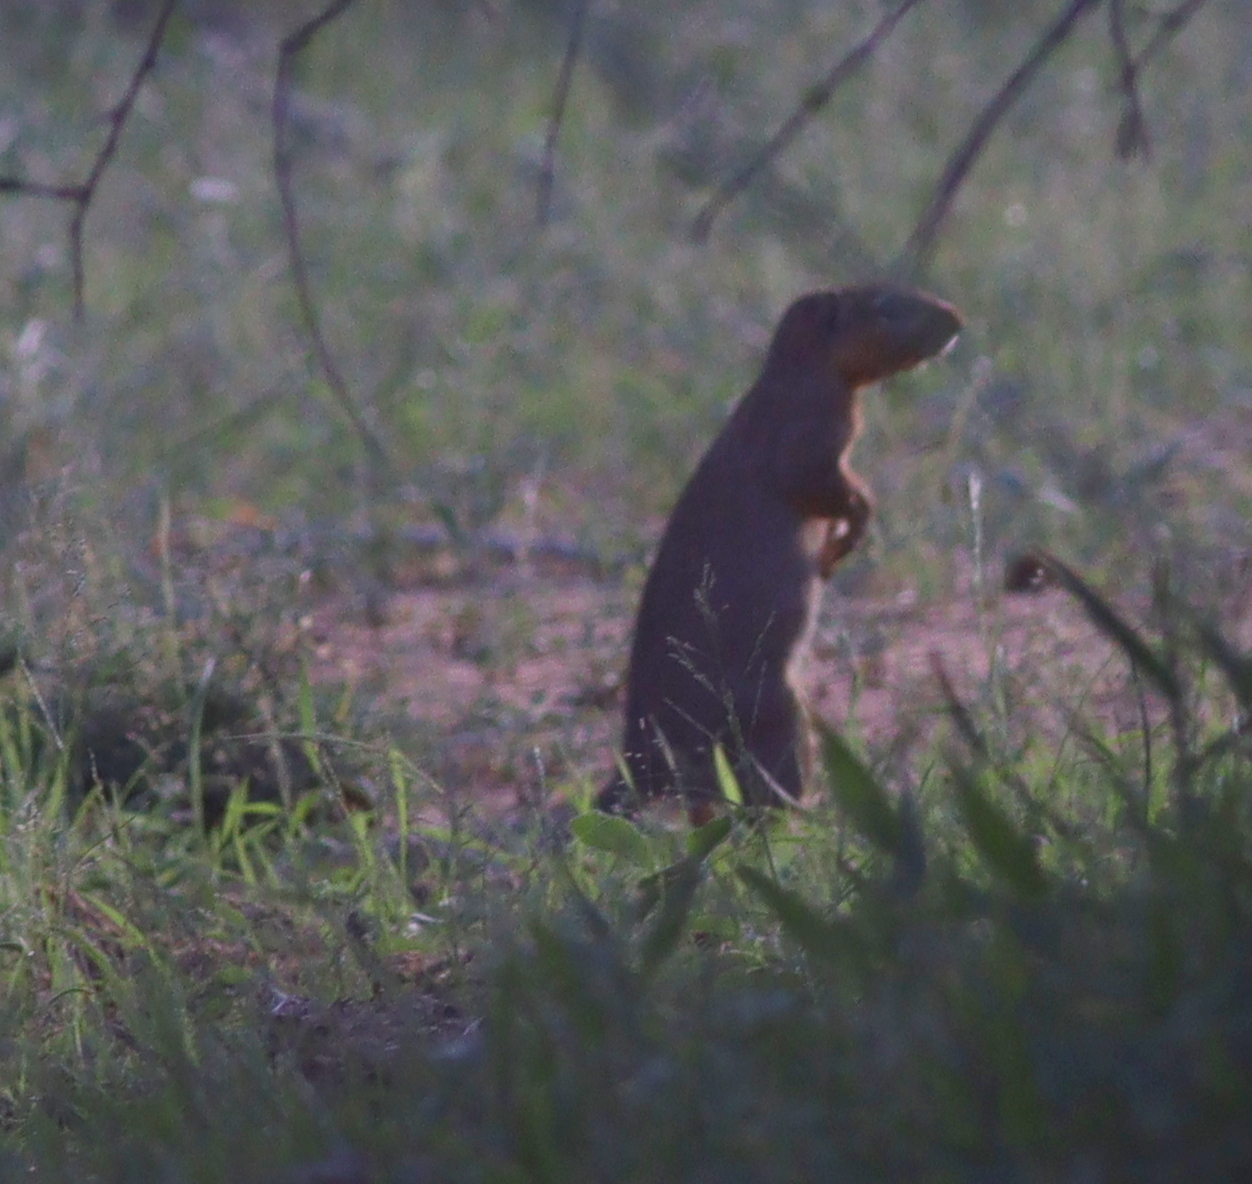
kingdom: Animalia
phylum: Chordata
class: Mammalia
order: Rodentia
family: Sciuridae
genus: Xerus
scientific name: Xerus rutilus
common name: Unstriped ground squirrel
